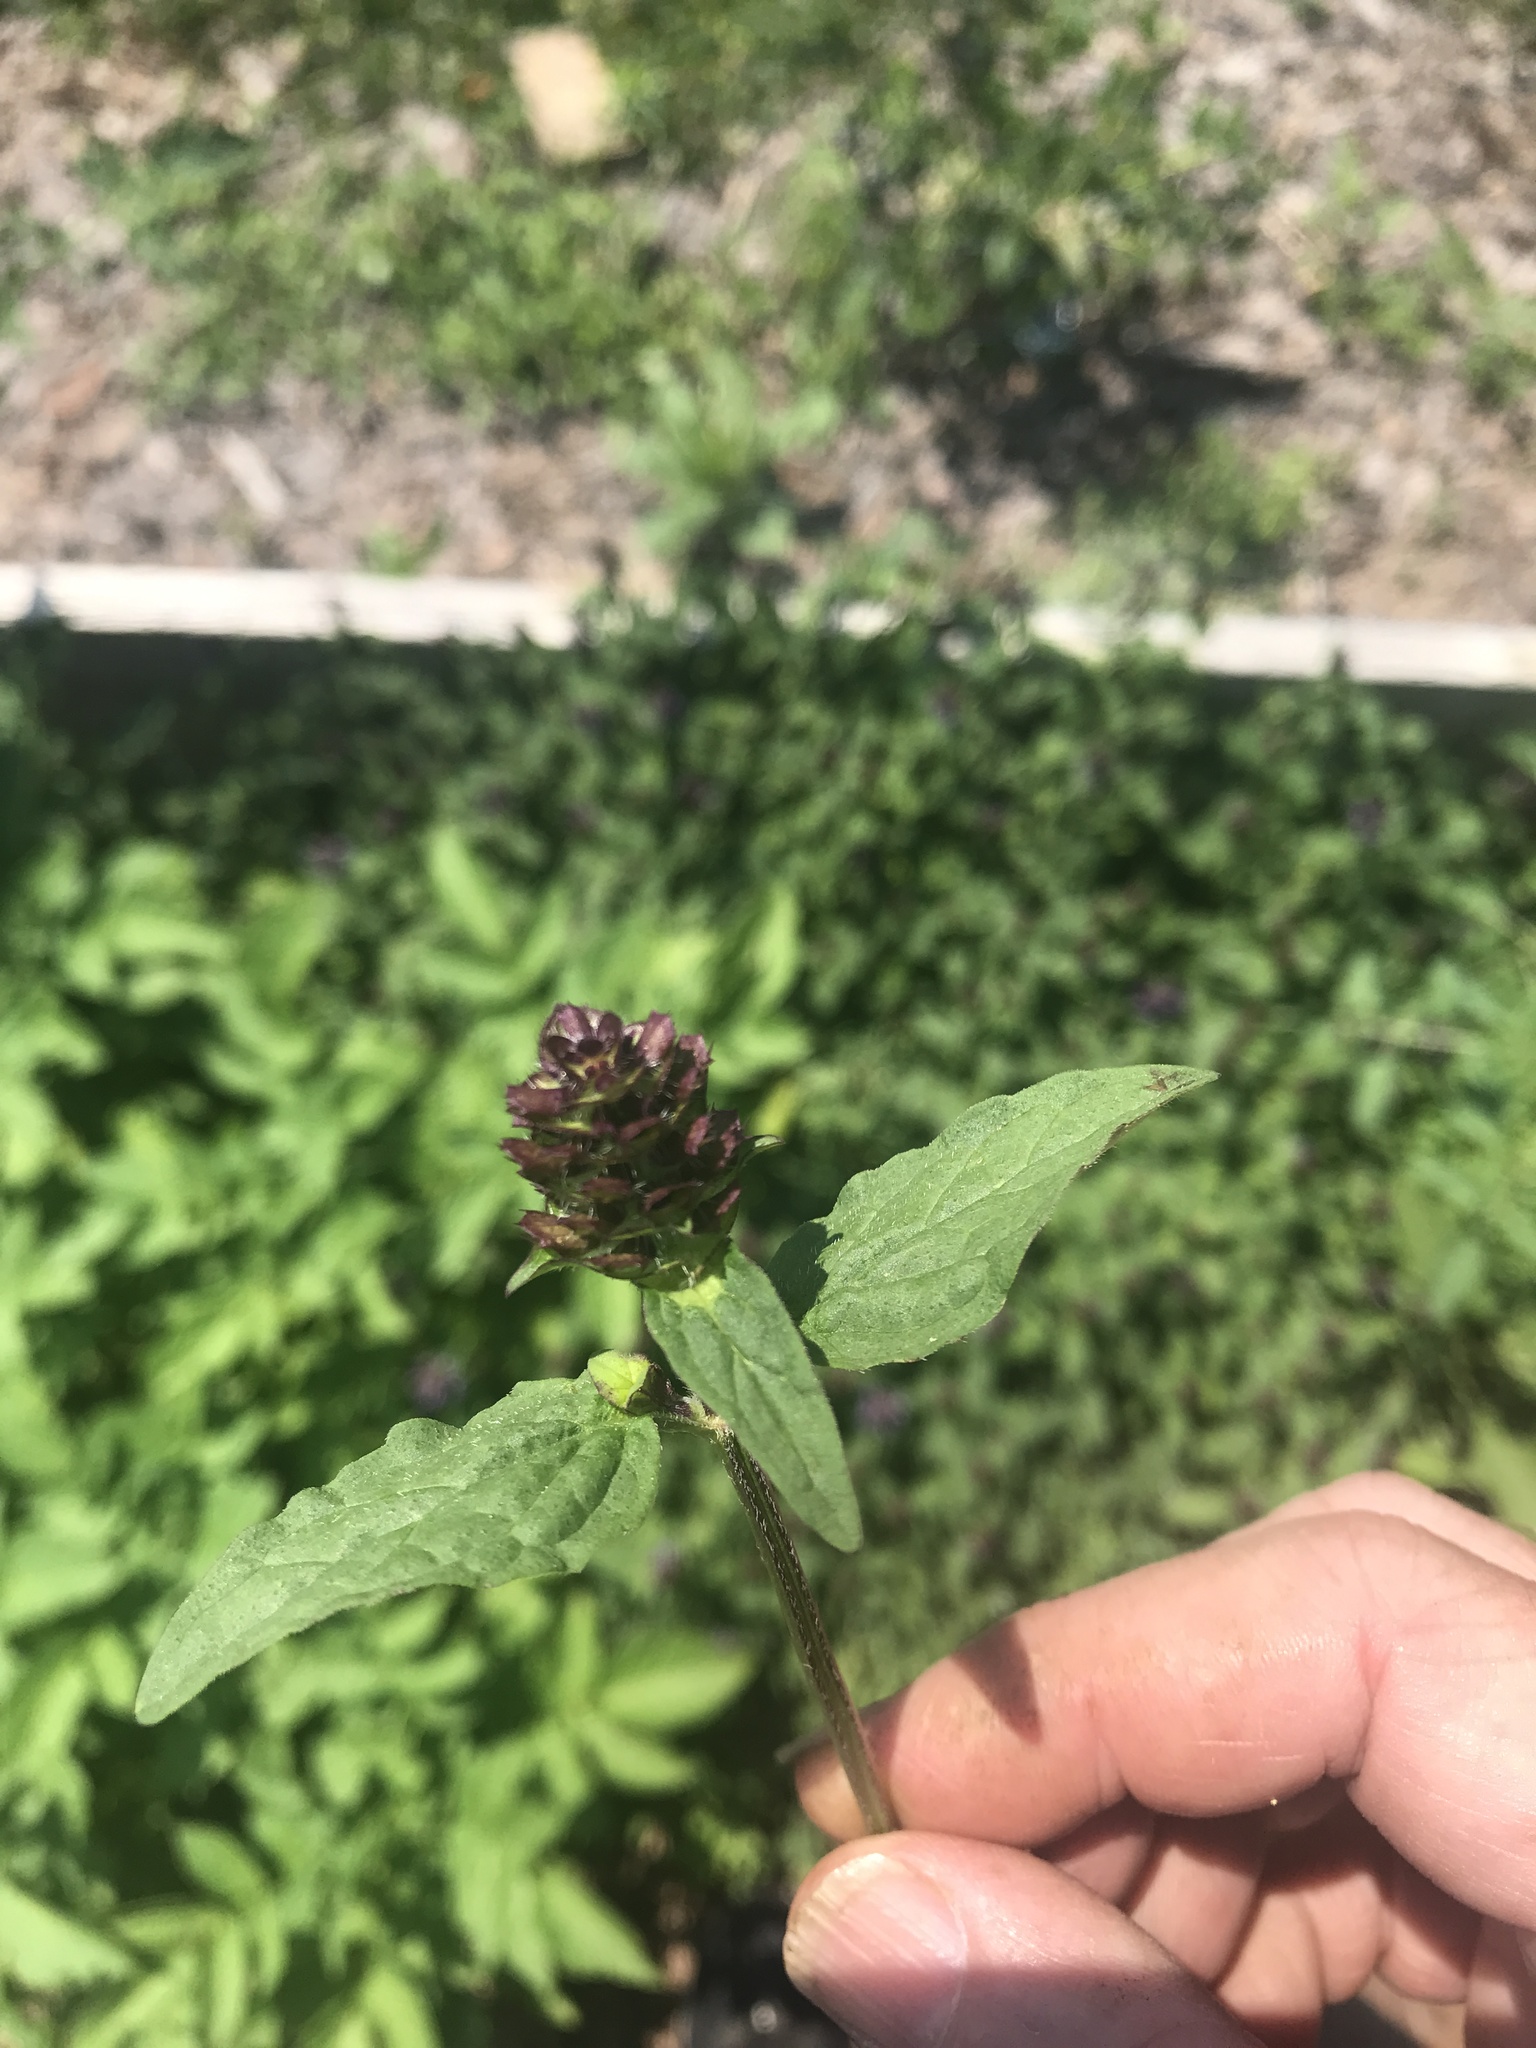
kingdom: Plantae
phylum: Tracheophyta
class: Magnoliopsida
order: Lamiales
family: Lamiaceae
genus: Prunella
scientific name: Prunella vulgaris
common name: Heal-all
